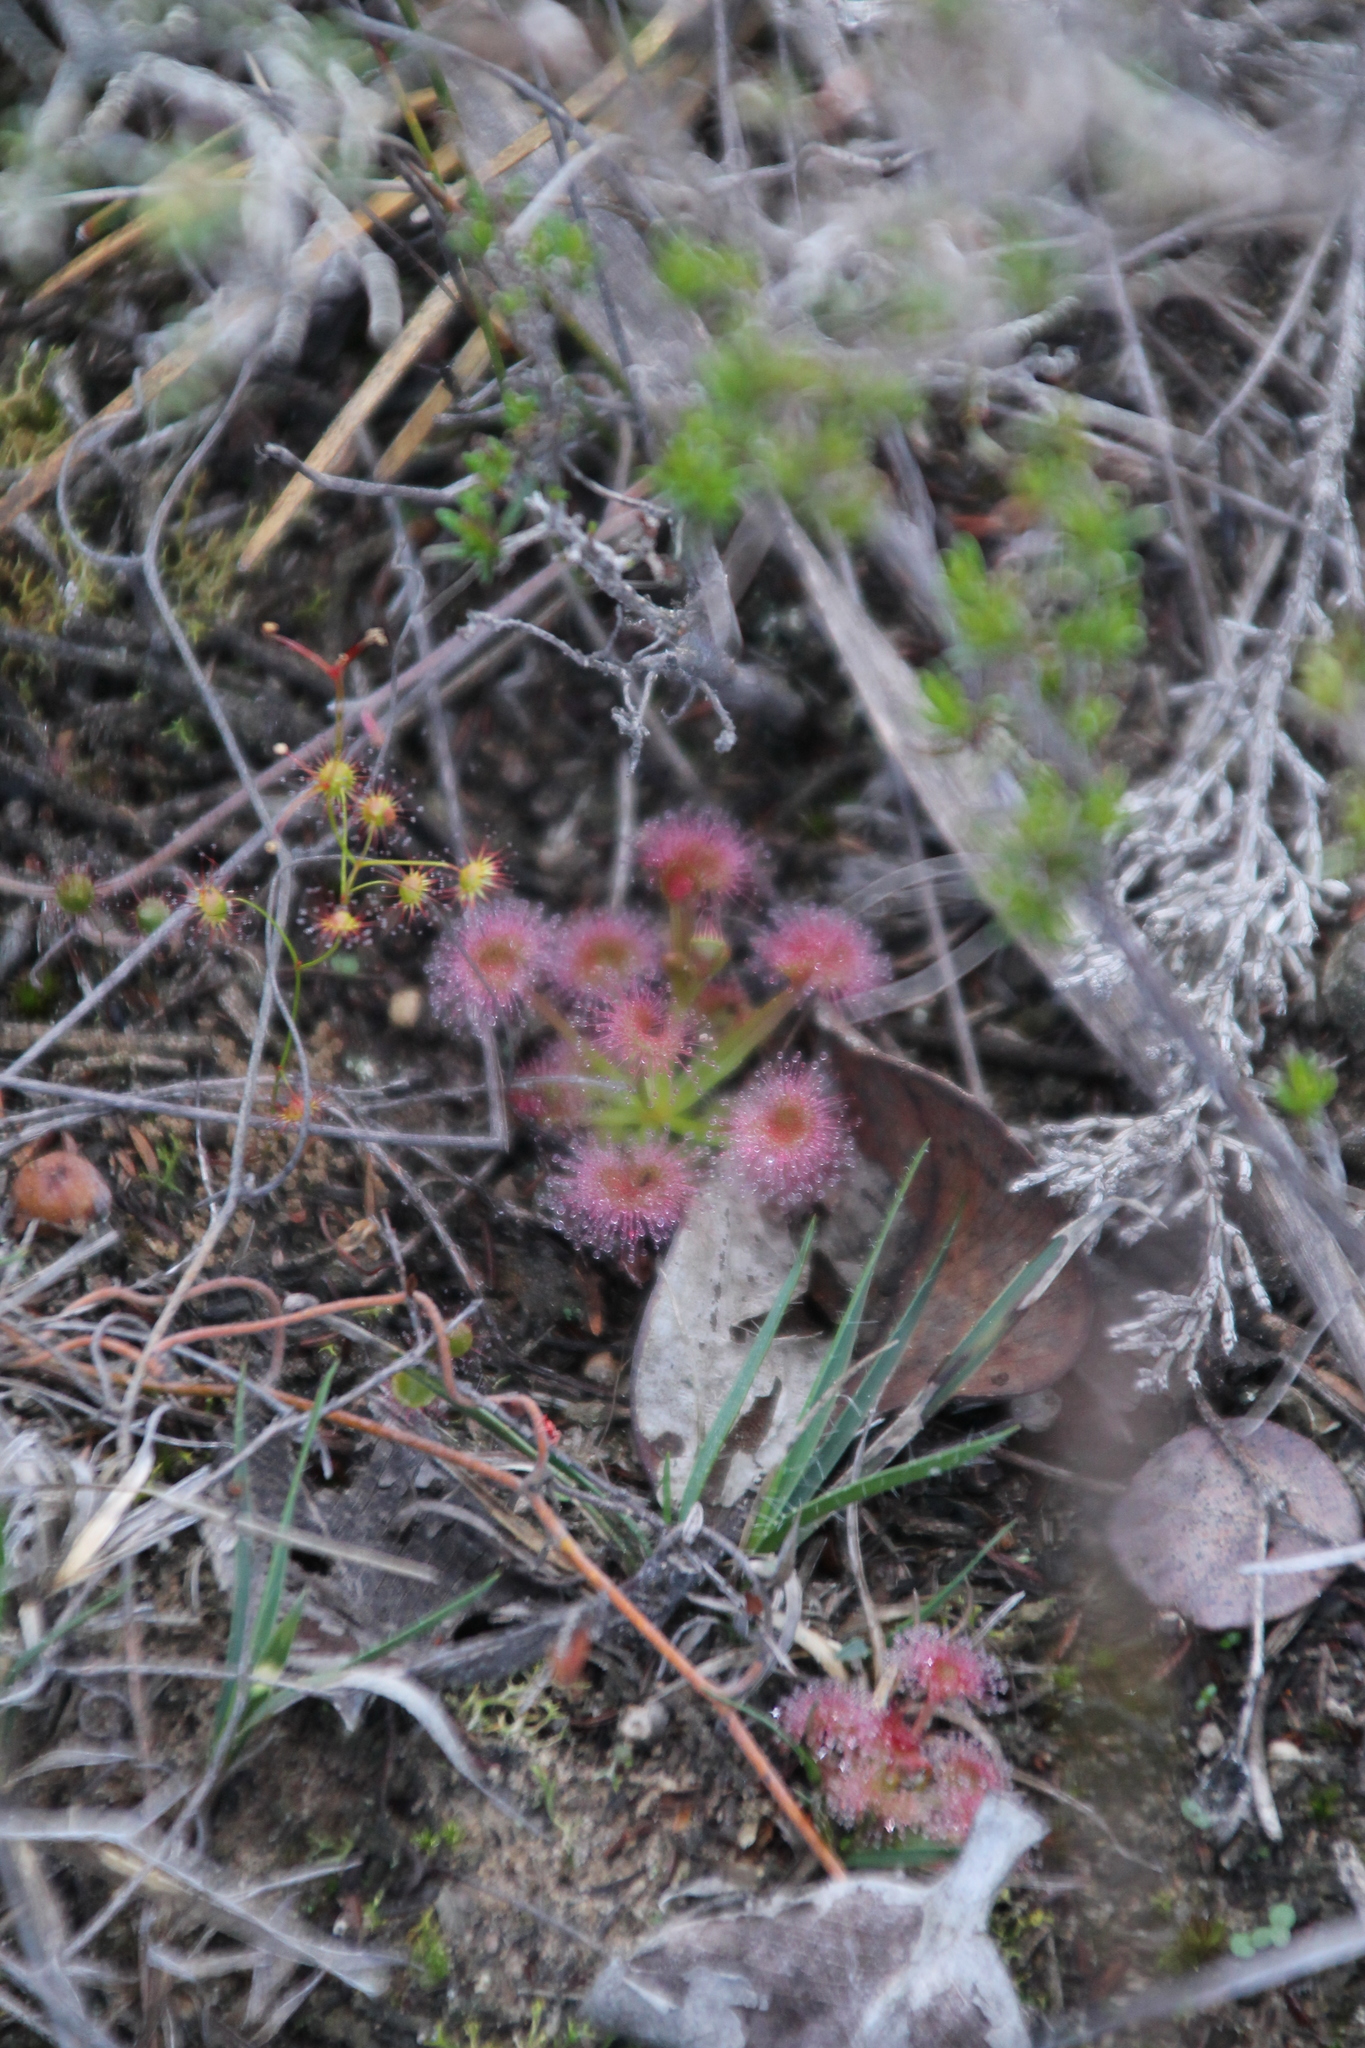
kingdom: Plantae
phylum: Tracheophyta
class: Magnoliopsida
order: Caryophyllales
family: Droseraceae
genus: Drosera
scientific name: Drosera stolonifera
